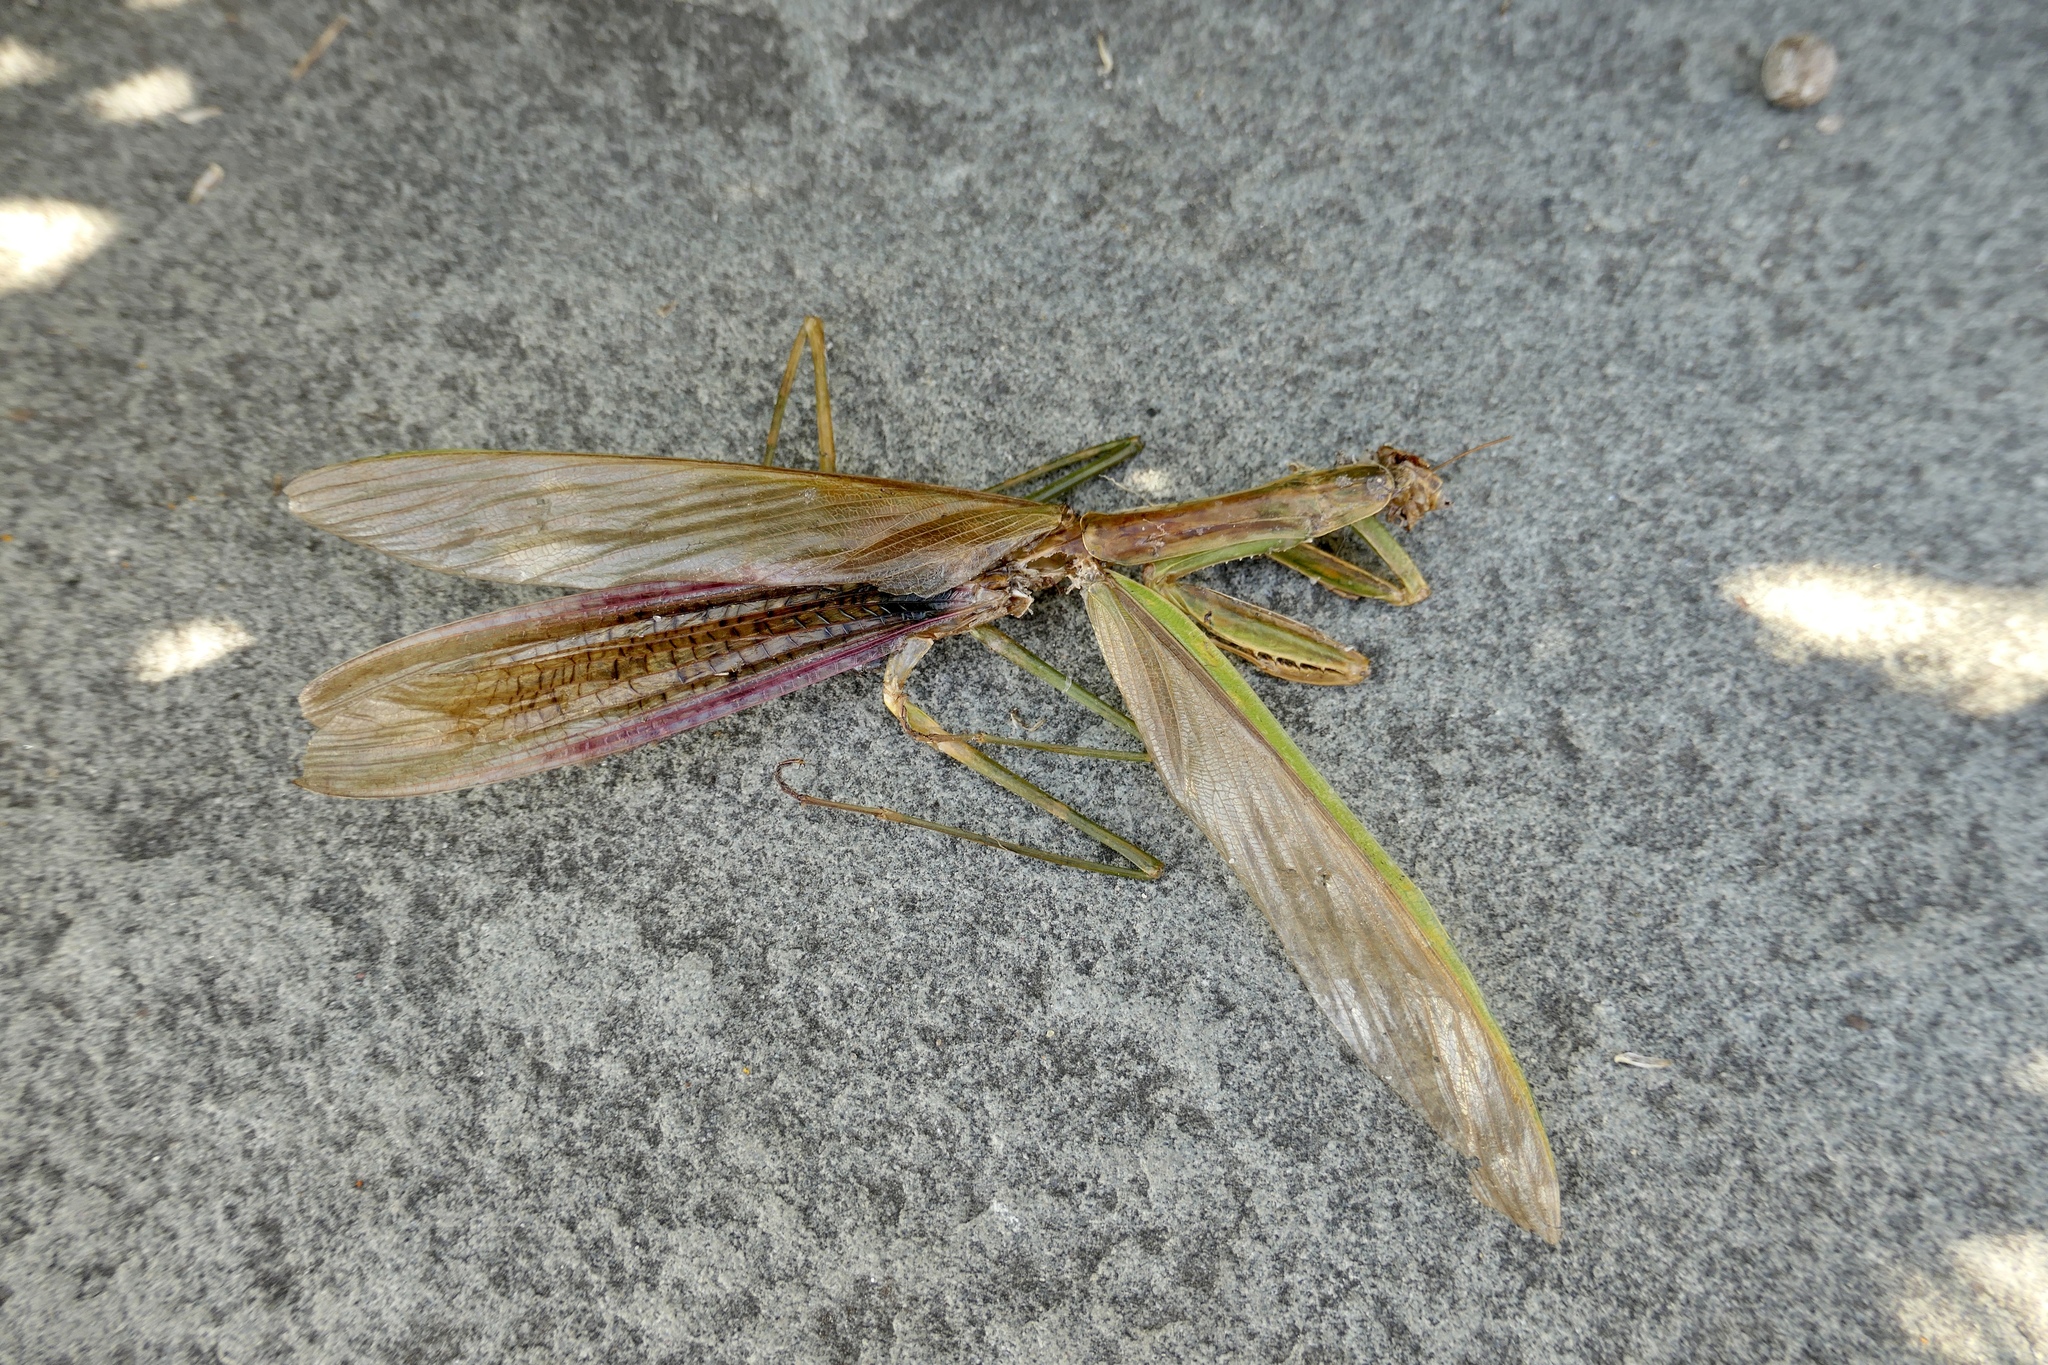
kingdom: Animalia
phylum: Arthropoda
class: Insecta
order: Mantodea
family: Mantidae
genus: Tenodera
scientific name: Tenodera sinensis
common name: Chinese mantis
